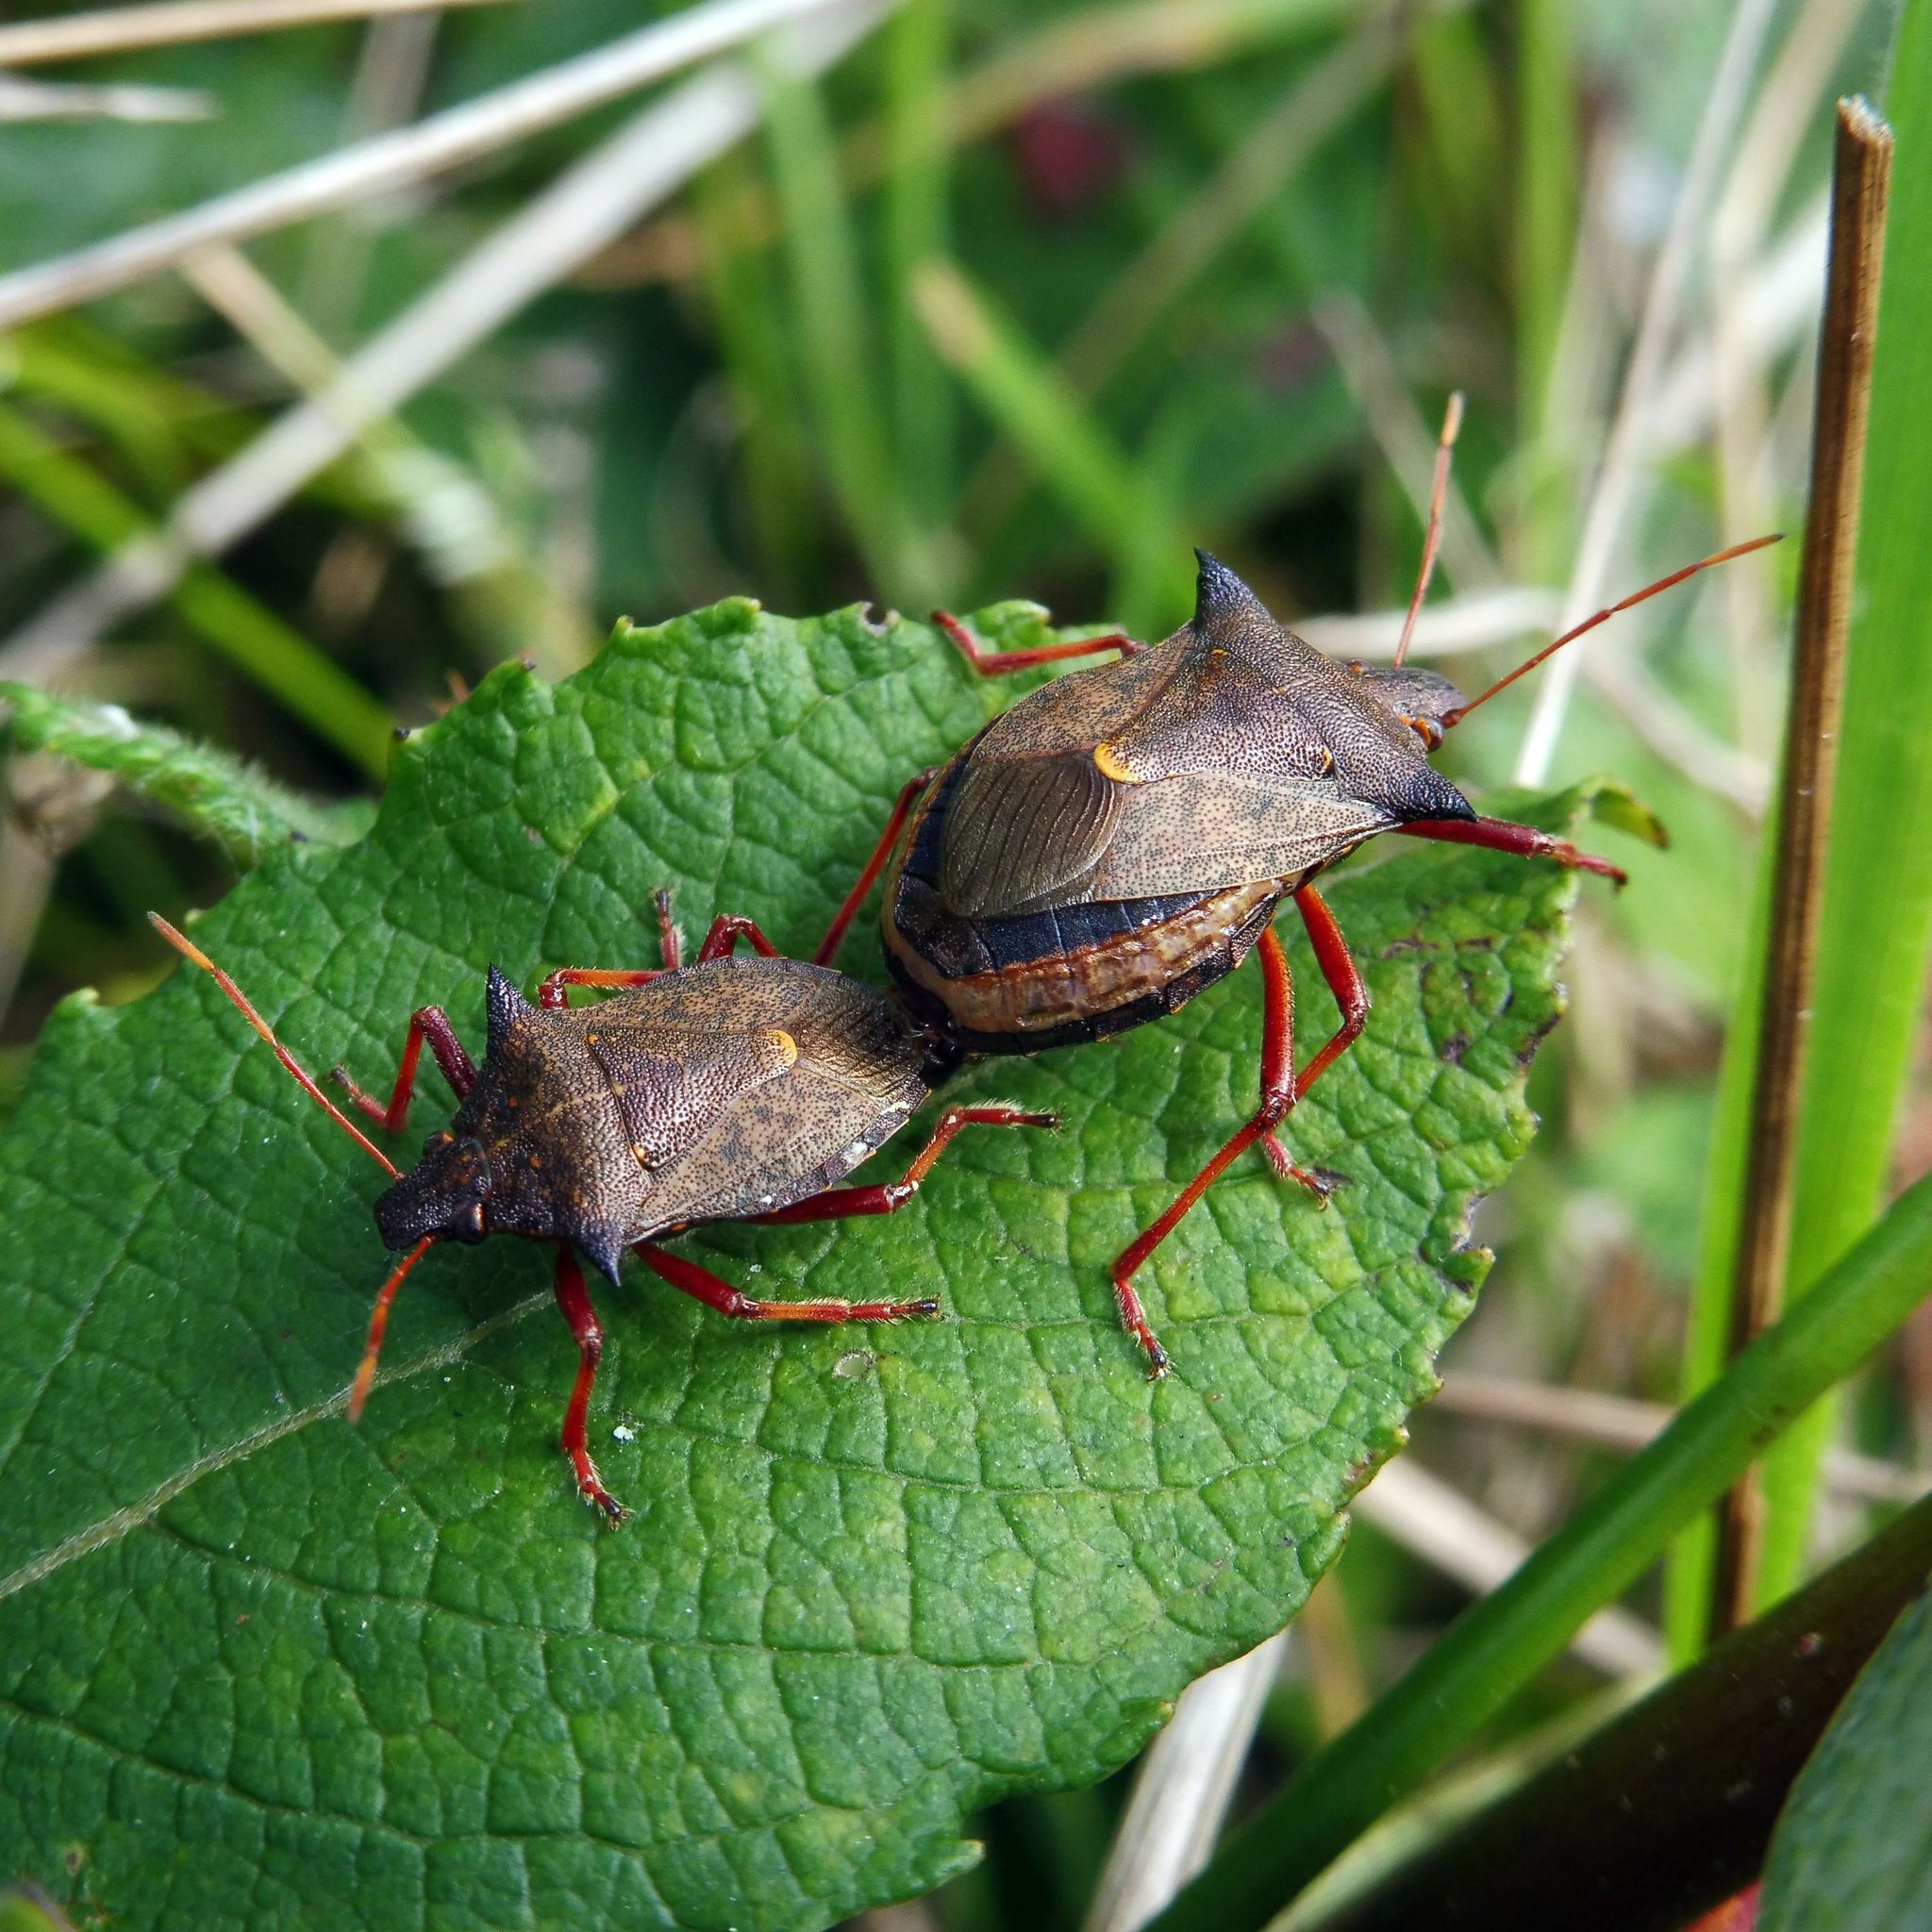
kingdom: Animalia
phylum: Arthropoda
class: Insecta
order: Hemiptera
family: Pentatomidae
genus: Picromerus
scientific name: Picromerus bidens
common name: Spiked shieldbug
